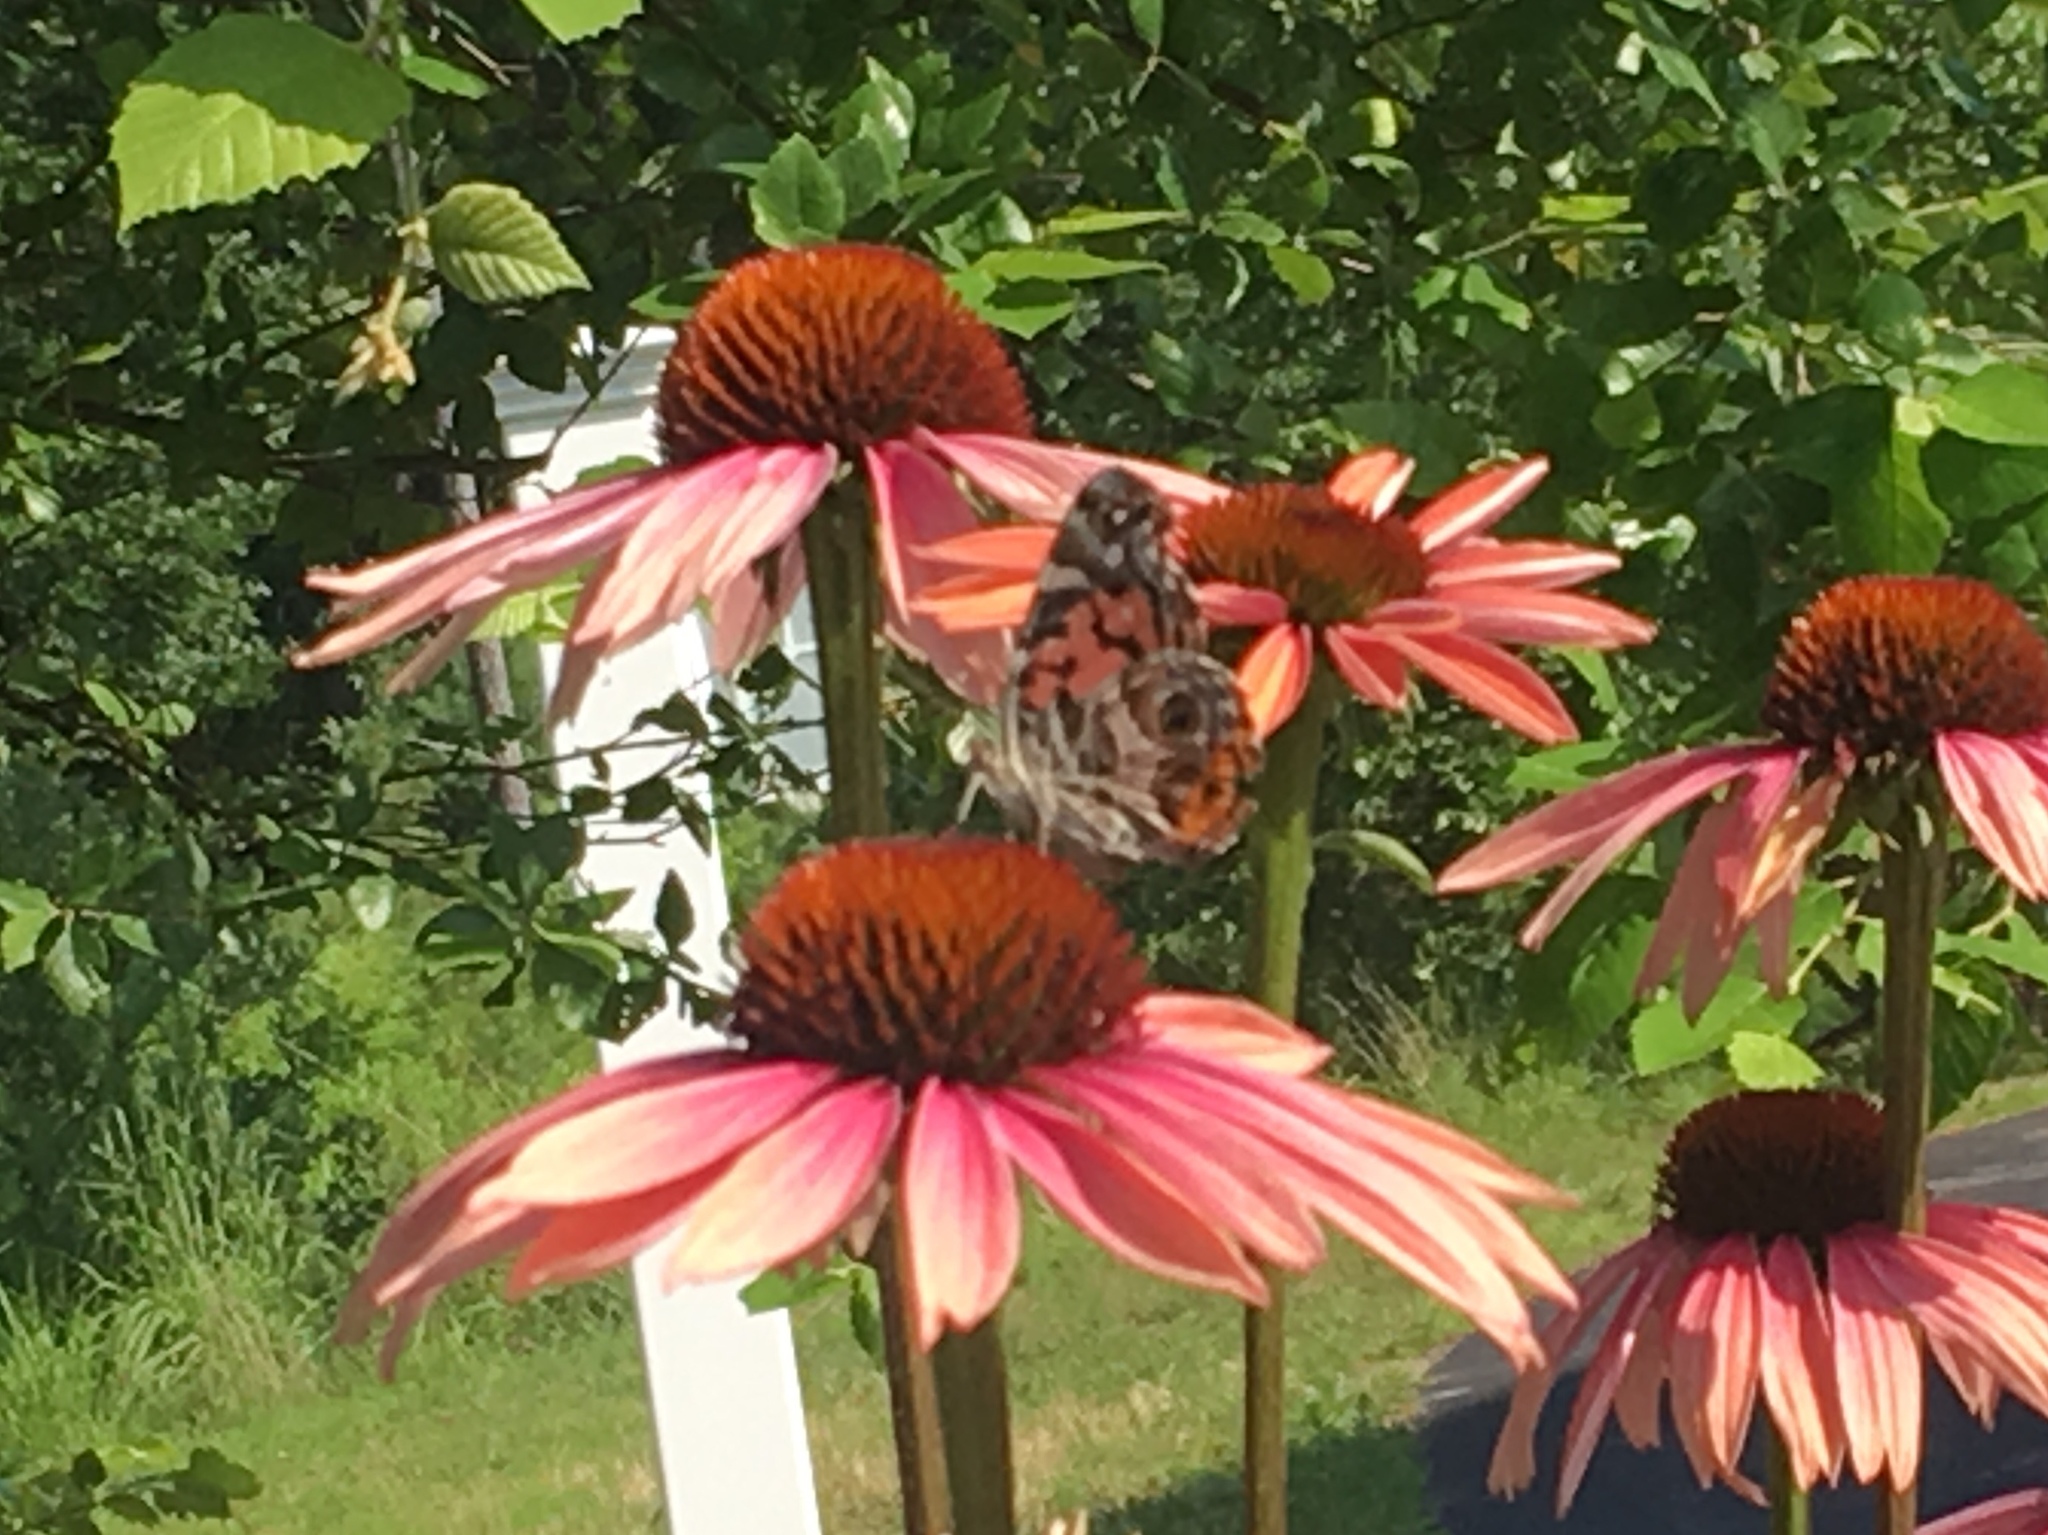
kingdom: Animalia
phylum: Arthropoda
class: Insecta
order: Lepidoptera
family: Nymphalidae
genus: Vanessa
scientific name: Vanessa virginiensis
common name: American lady
